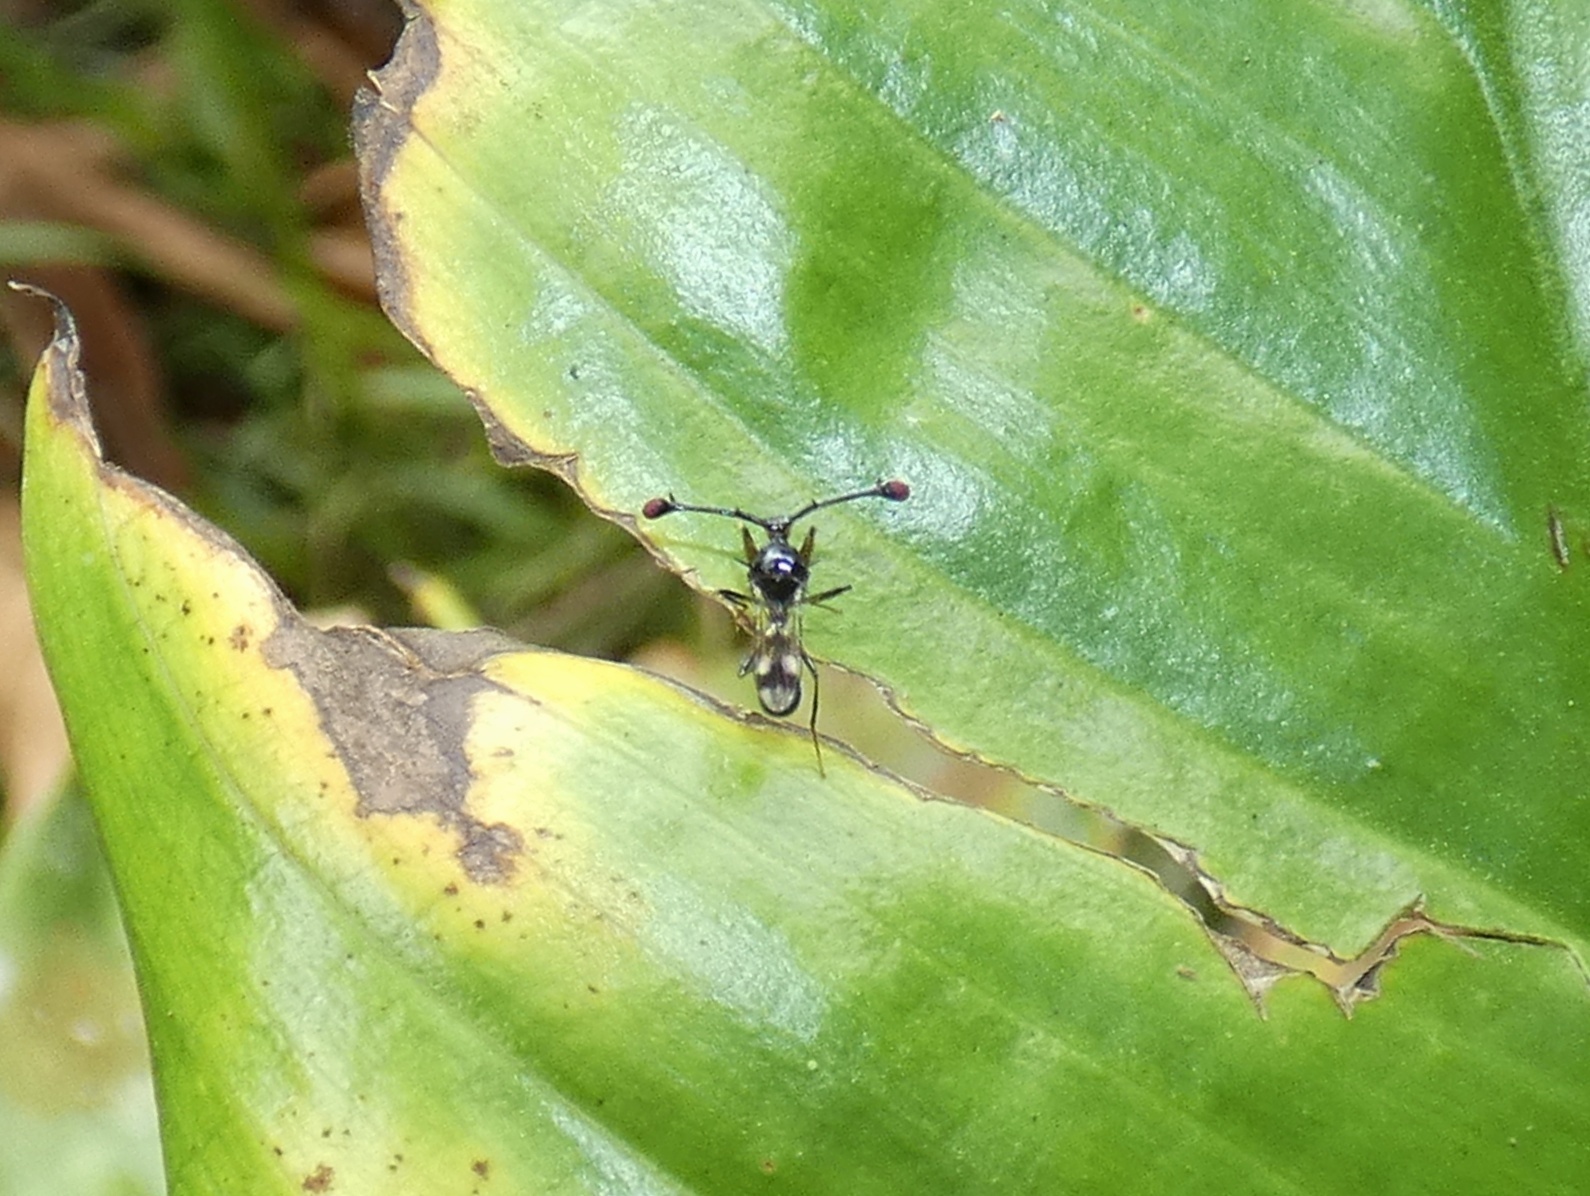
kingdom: Animalia
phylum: Arthropoda
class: Insecta
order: Diptera
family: Diopsidae
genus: Teleopsis
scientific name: Teleopsis nitidiscutum
